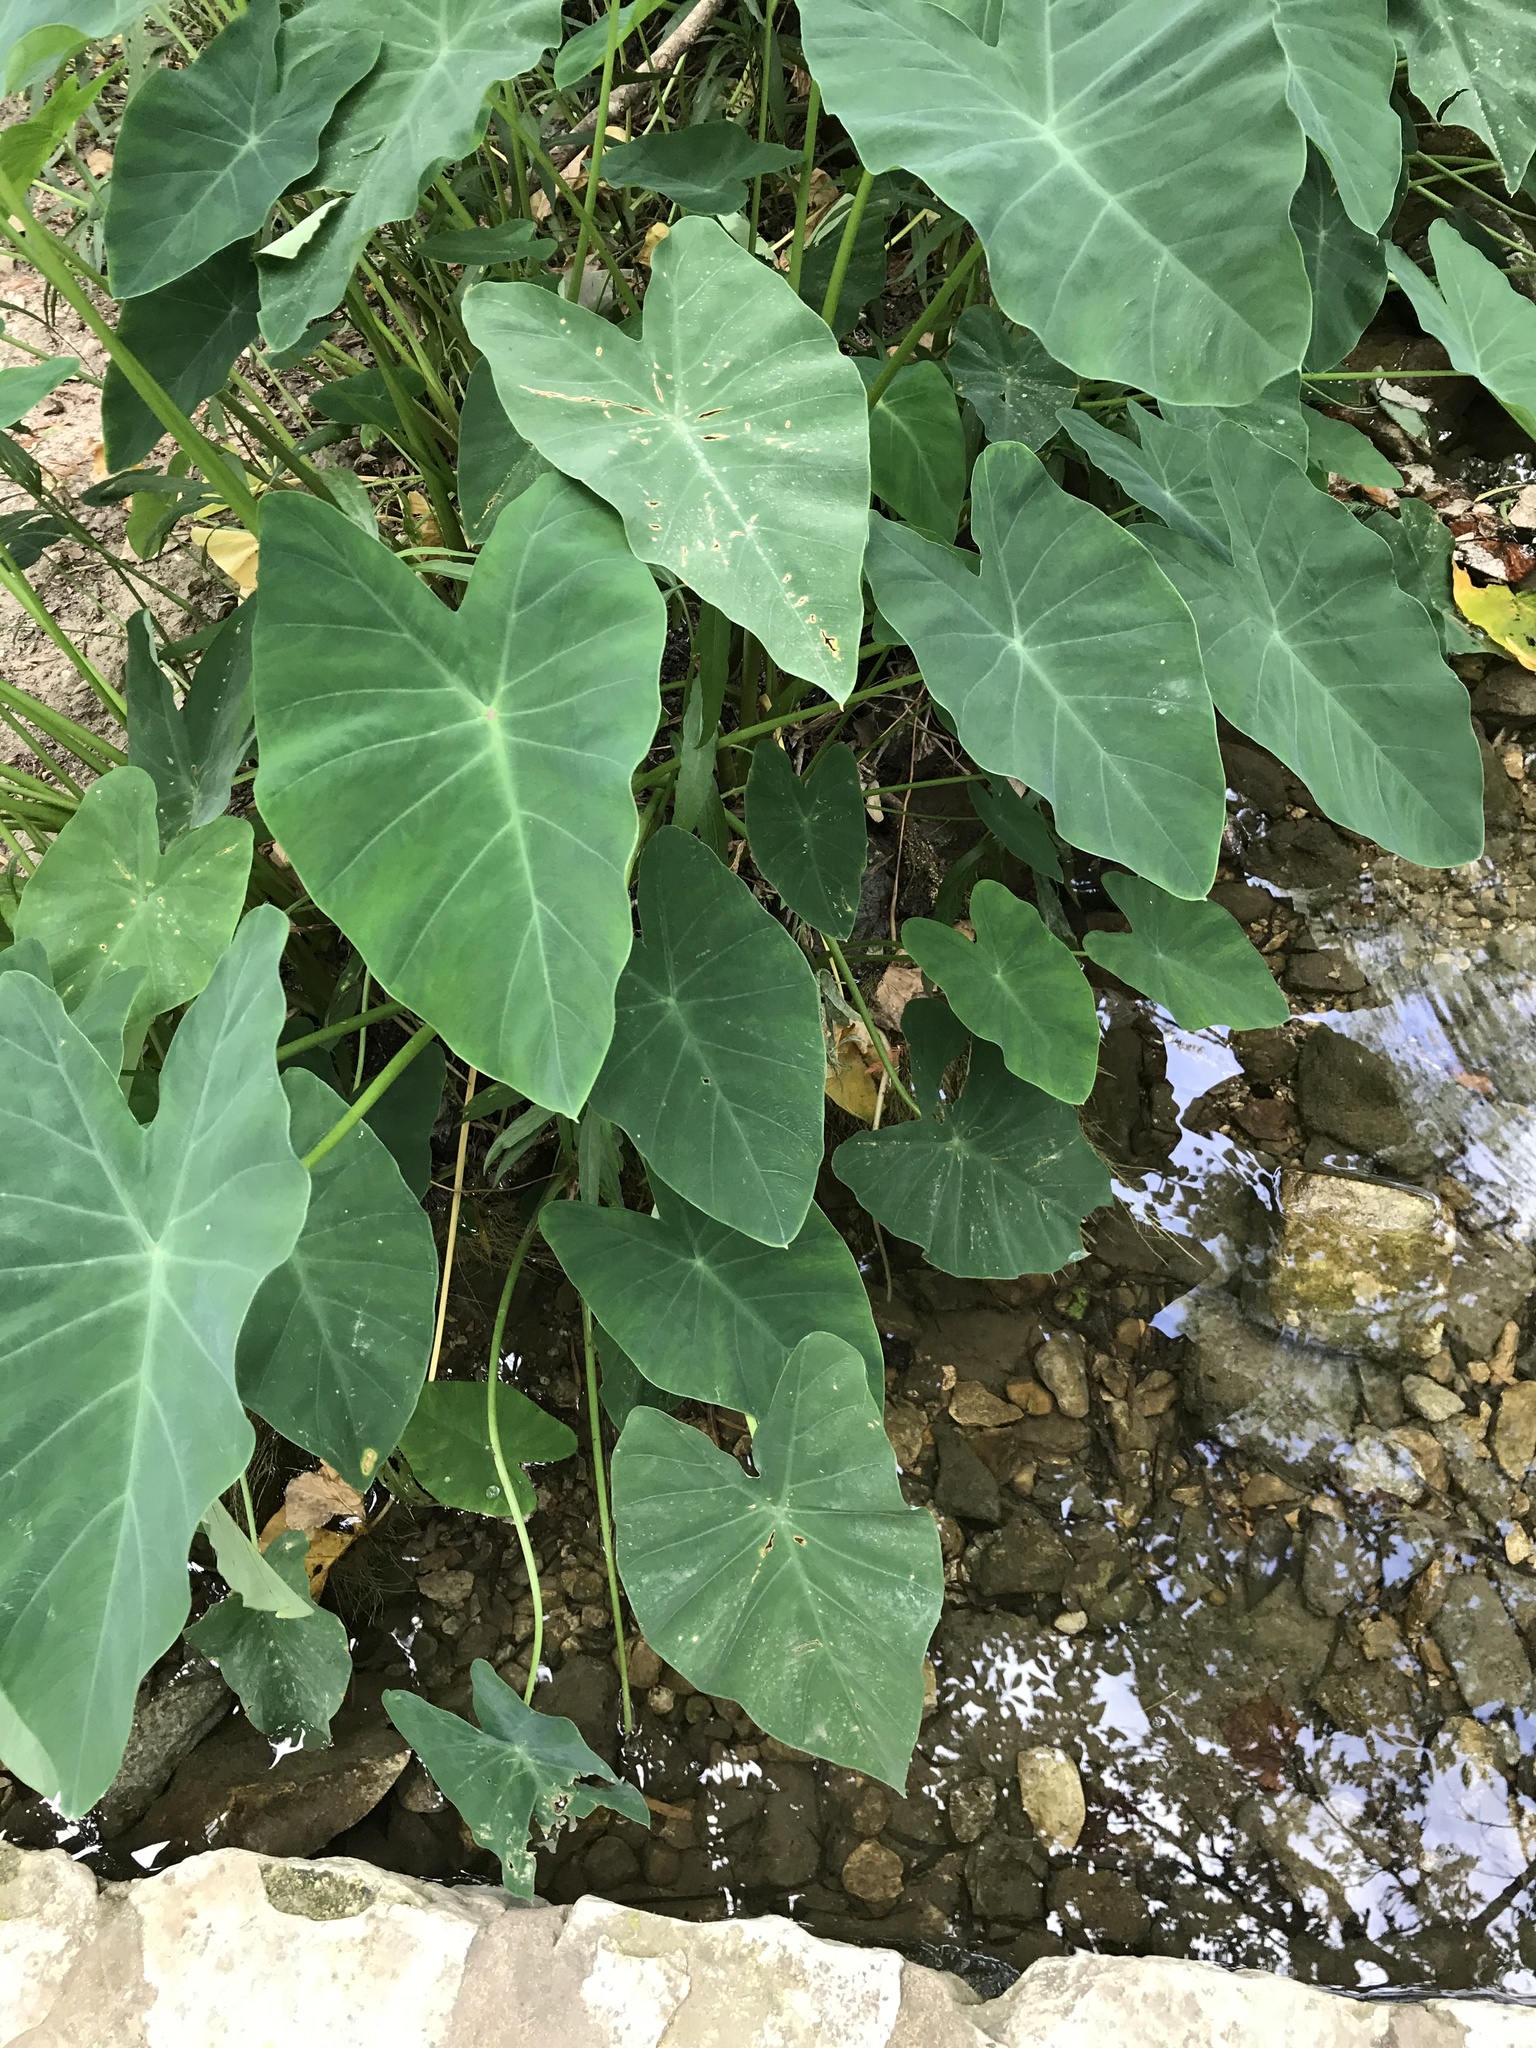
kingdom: Plantae
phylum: Tracheophyta
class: Liliopsida
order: Alismatales
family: Araceae
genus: Colocasia
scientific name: Colocasia esculenta
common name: Taro
